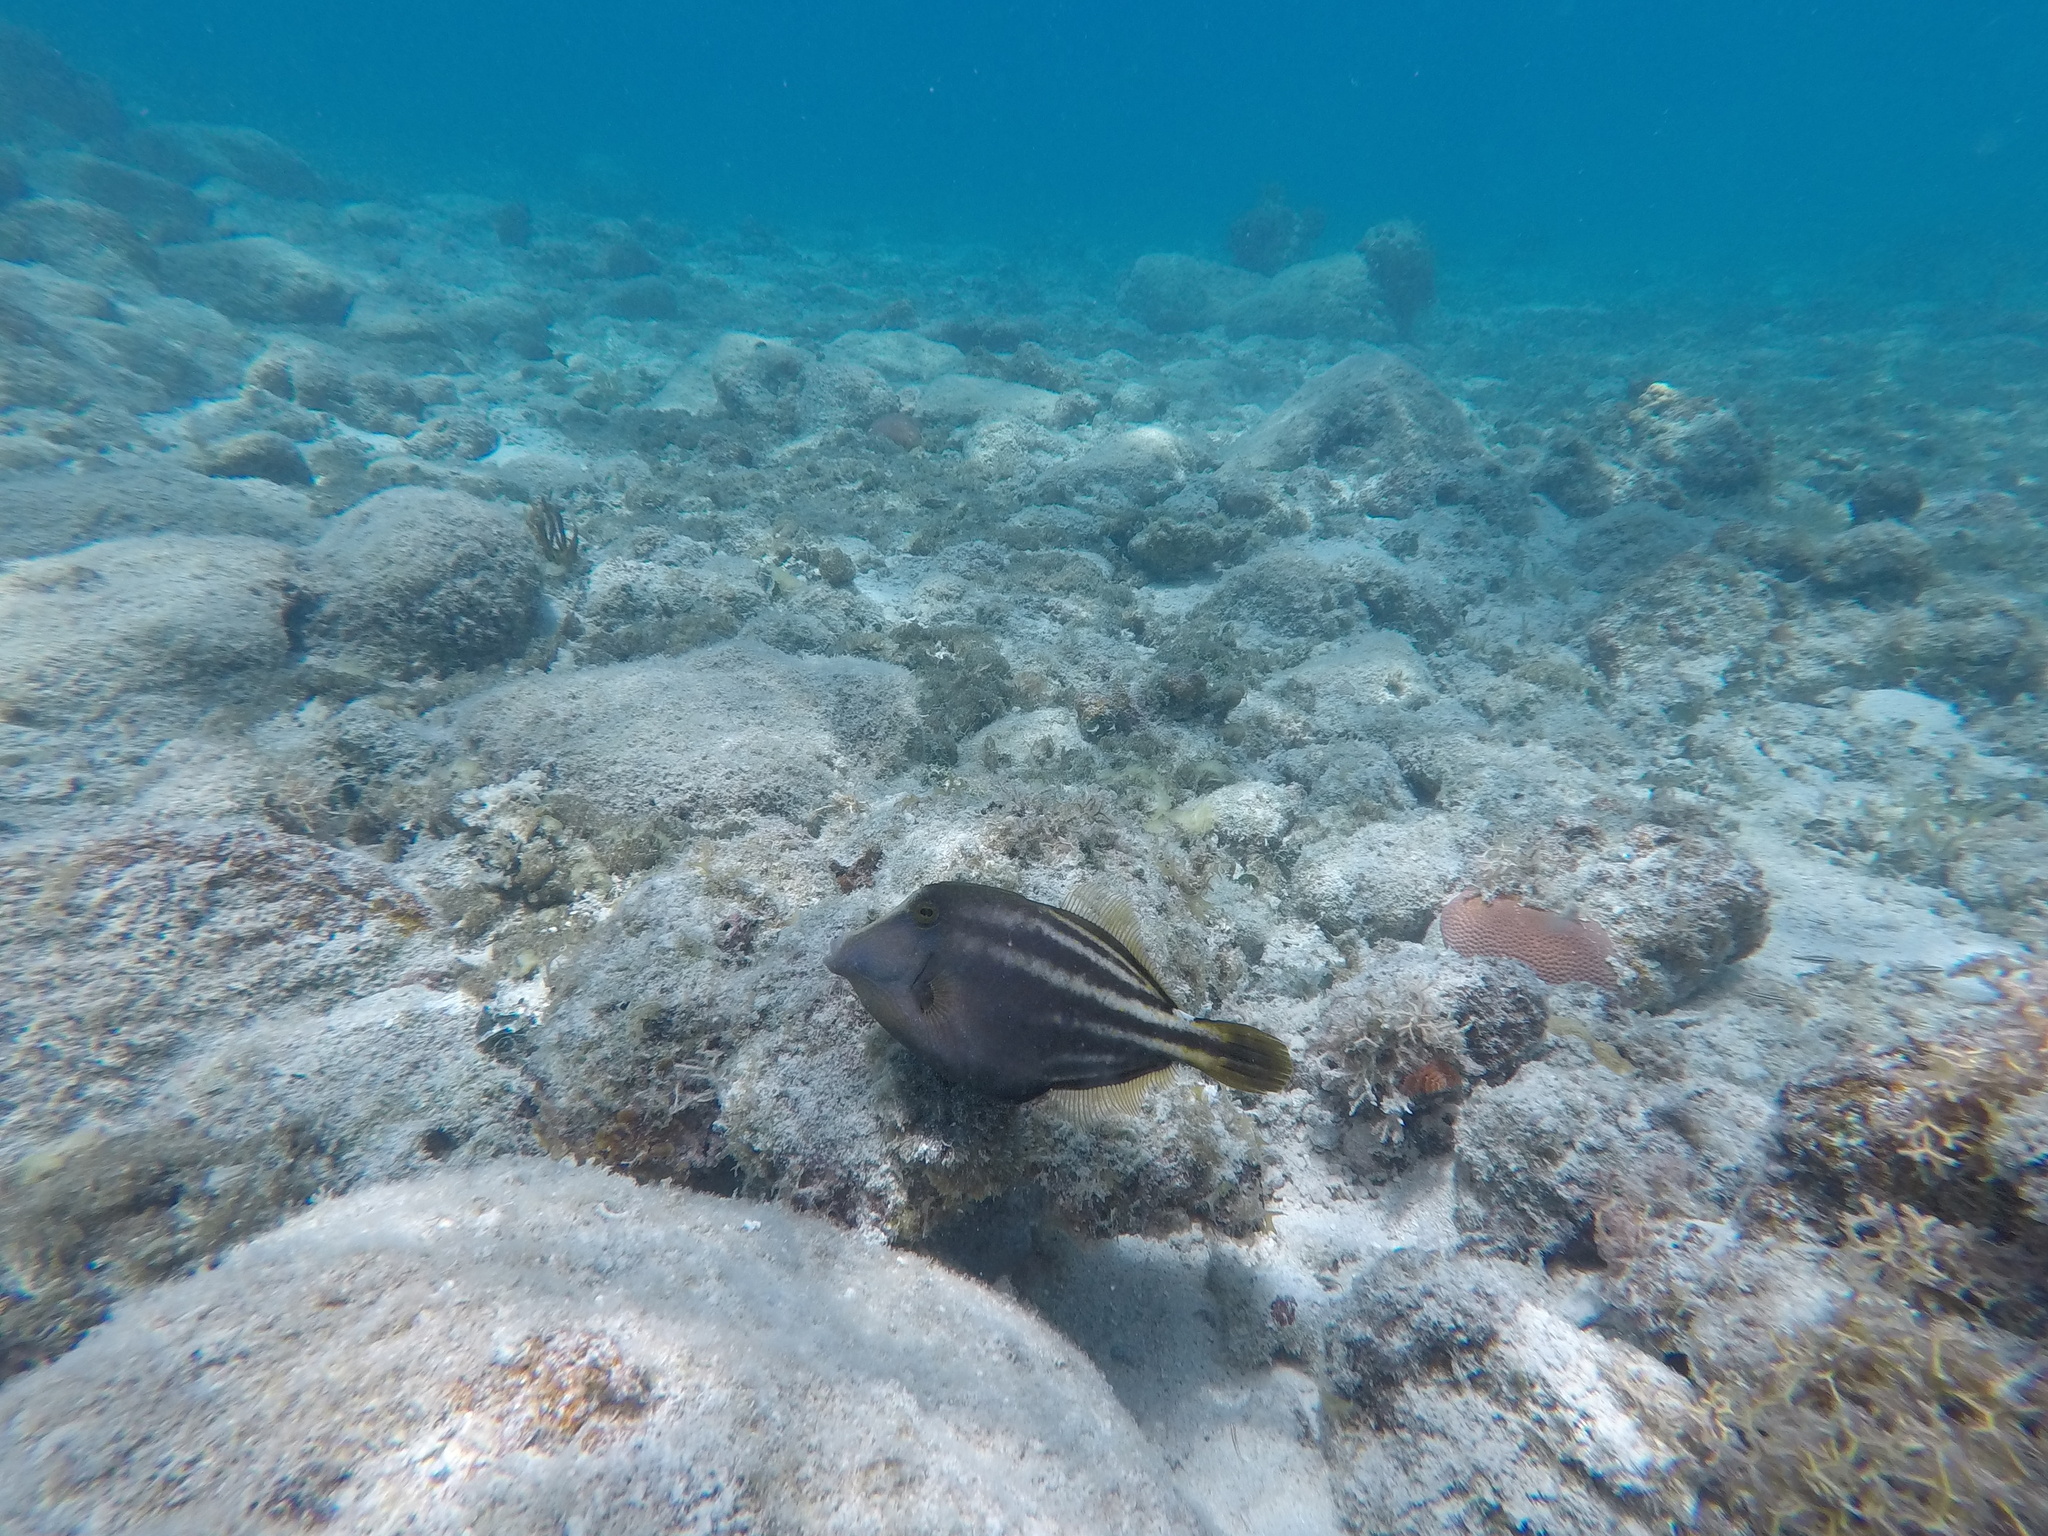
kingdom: Animalia
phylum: Chordata
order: Tetraodontiformes
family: Monacanthidae
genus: Cantherhines
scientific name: Cantherhines pullus
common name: Orangespotted filefish
